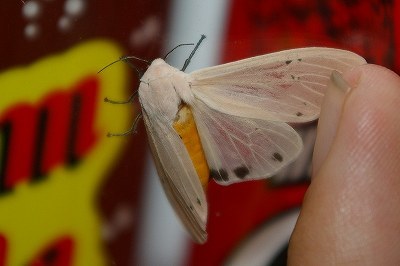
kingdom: Animalia
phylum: Arthropoda
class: Insecta
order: Lepidoptera
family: Erebidae
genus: Creatonotos
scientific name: Creatonotos transiens
